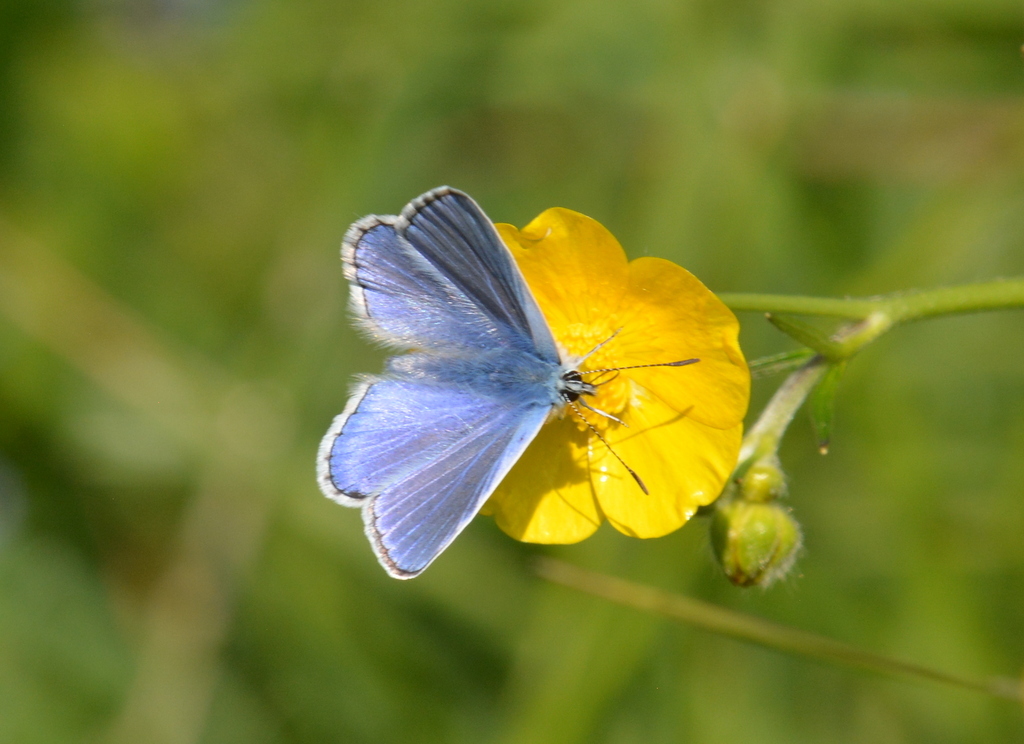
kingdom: Animalia
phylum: Arthropoda
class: Insecta
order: Lepidoptera
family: Lycaenidae
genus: Polyommatus
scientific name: Polyommatus icarus
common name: Common blue
